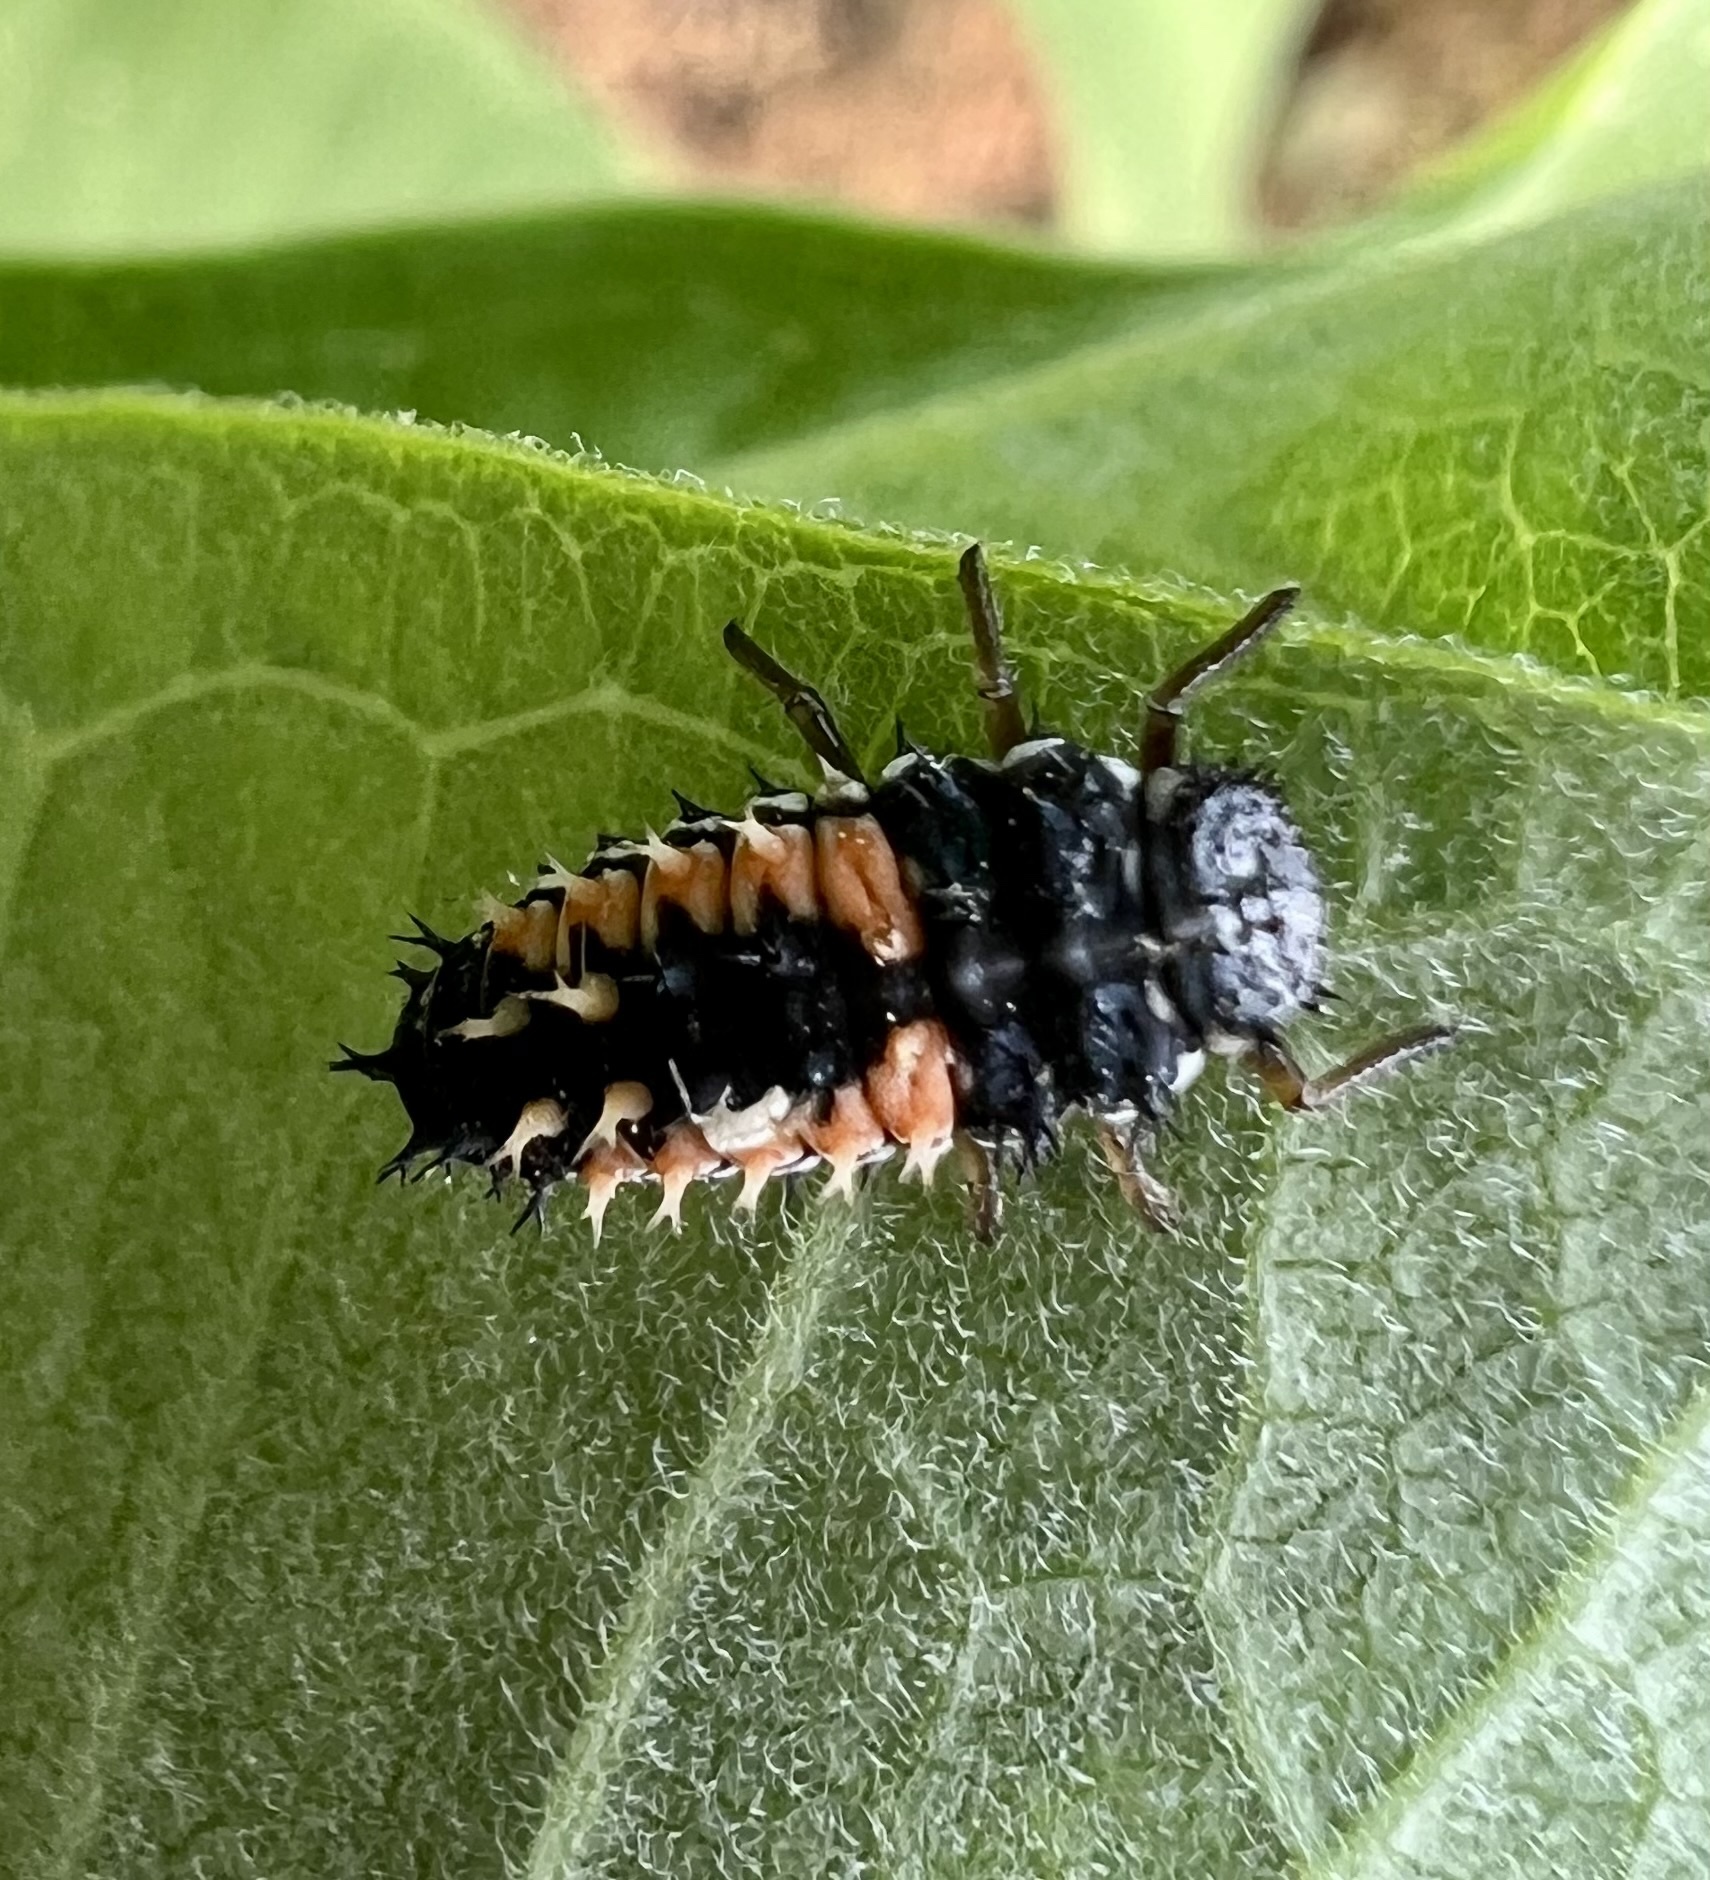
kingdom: Animalia
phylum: Arthropoda
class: Insecta
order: Coleoptera
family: Coccinellidae
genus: Harmonia
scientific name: Harmonia axyridis
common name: Harlequin ladybird
